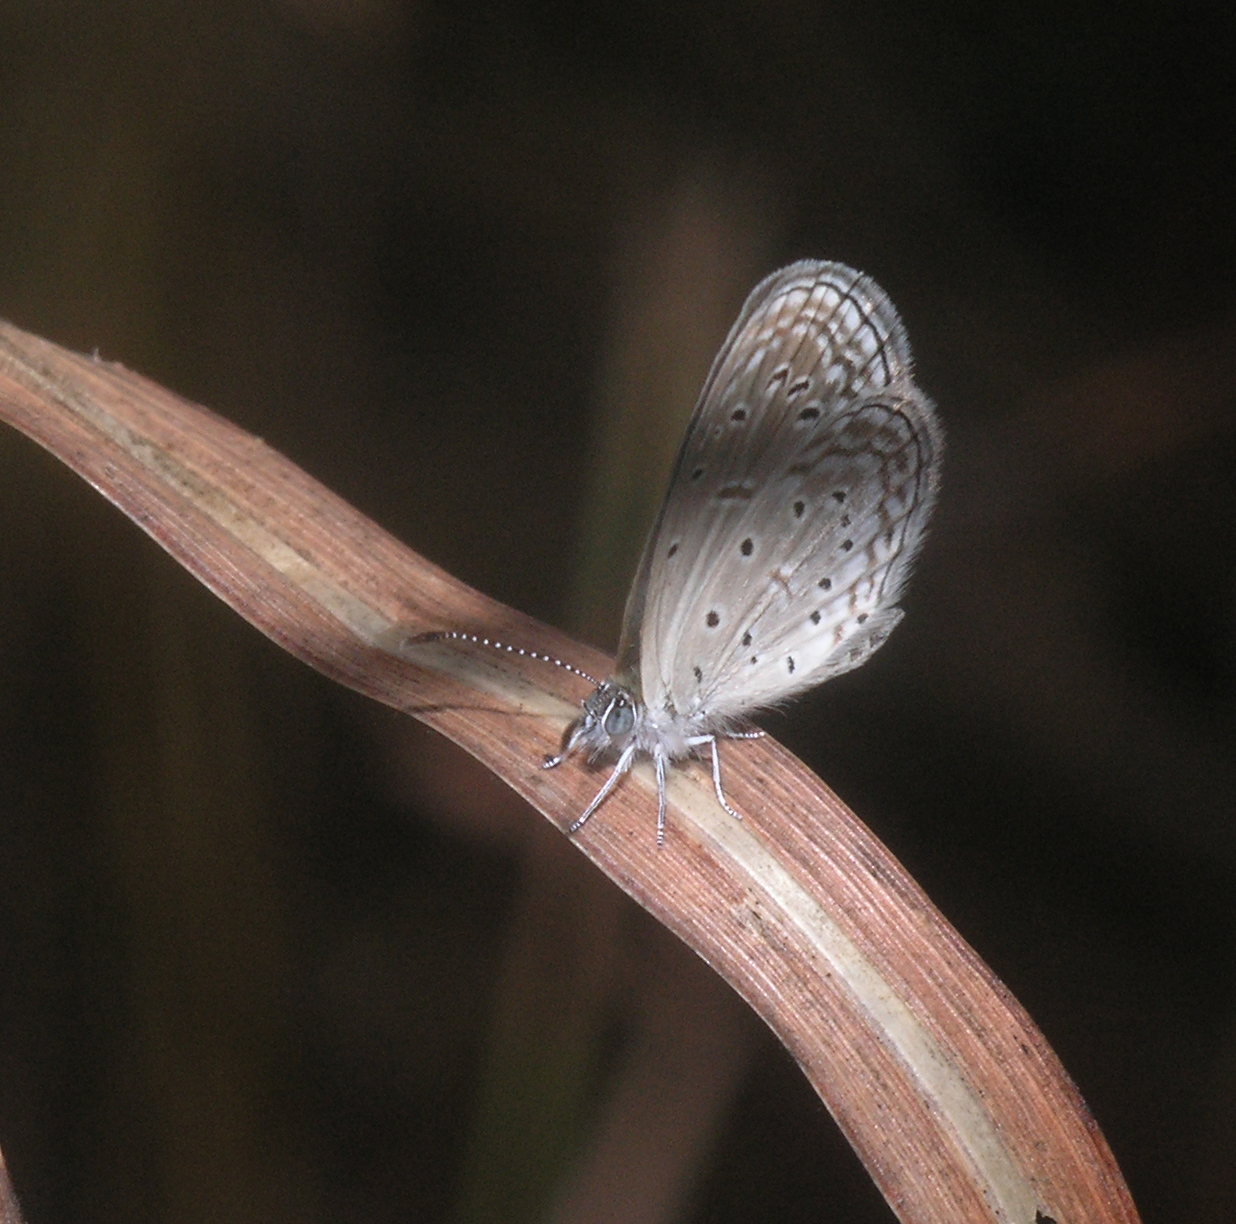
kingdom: Animalia
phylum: Arthropoda
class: Insecta
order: Lepidoptera
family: Lycaenidae
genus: Zizula
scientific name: Zizula hylax
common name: Gaika blue
